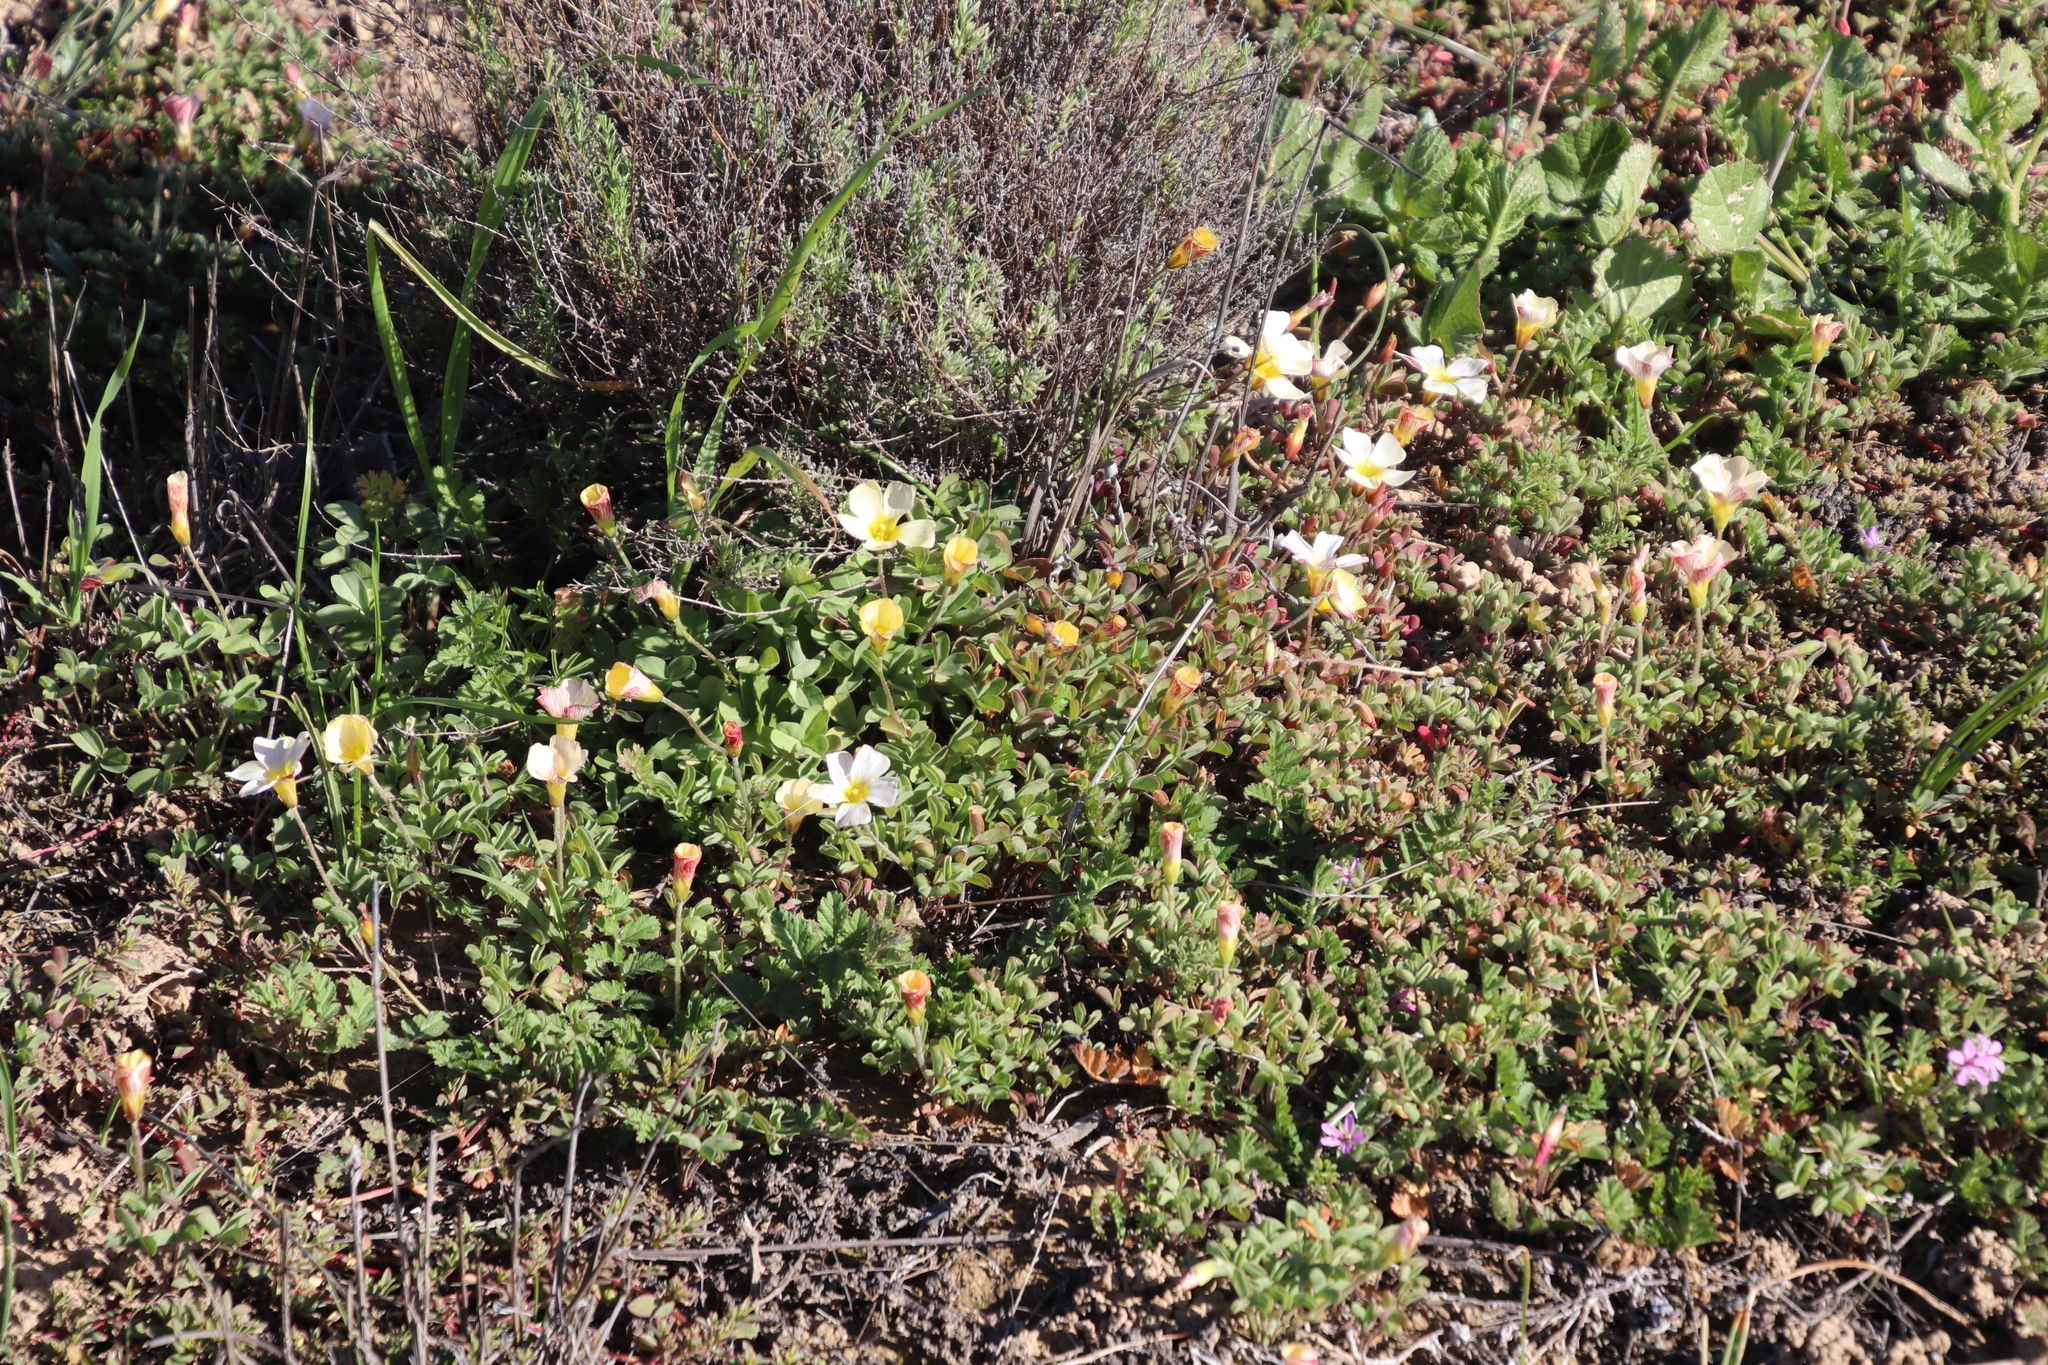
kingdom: Plantae
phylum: Tracheophyta
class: Magnoliopsida
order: Oxalidales
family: Oxalidaceae
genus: Oxalis
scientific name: Oxalis obtusa
